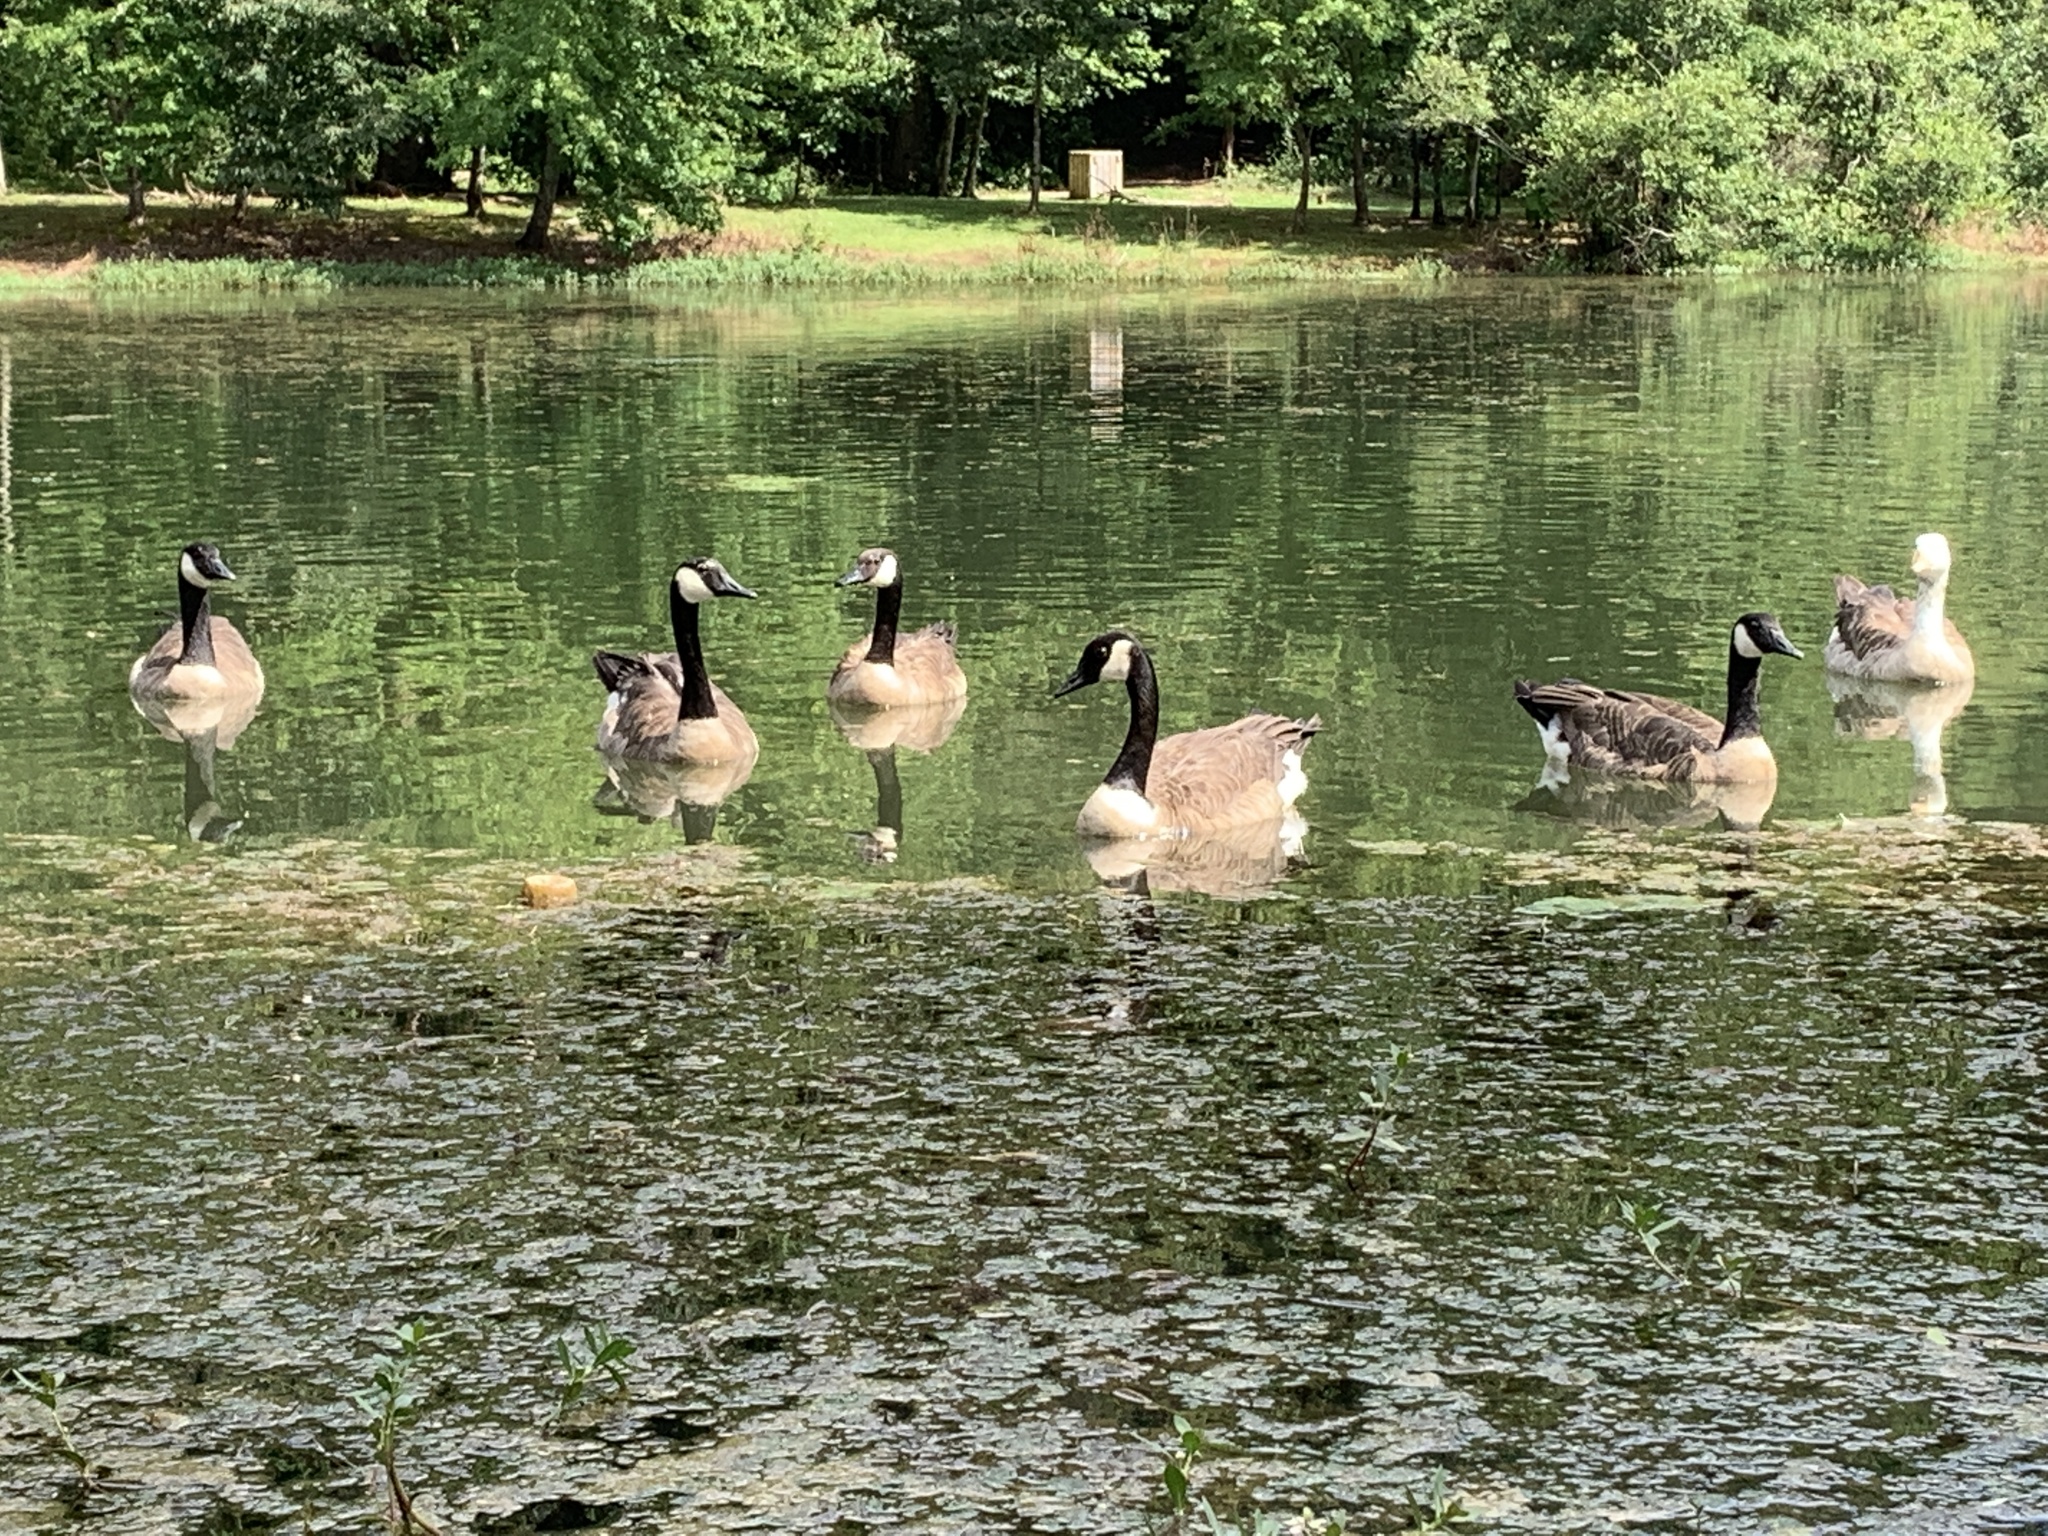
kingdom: Animalia
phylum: Chordata
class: Aves
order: Anseriformes
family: Anatidae
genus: Branta
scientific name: Branta canadensis
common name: Canada goose
